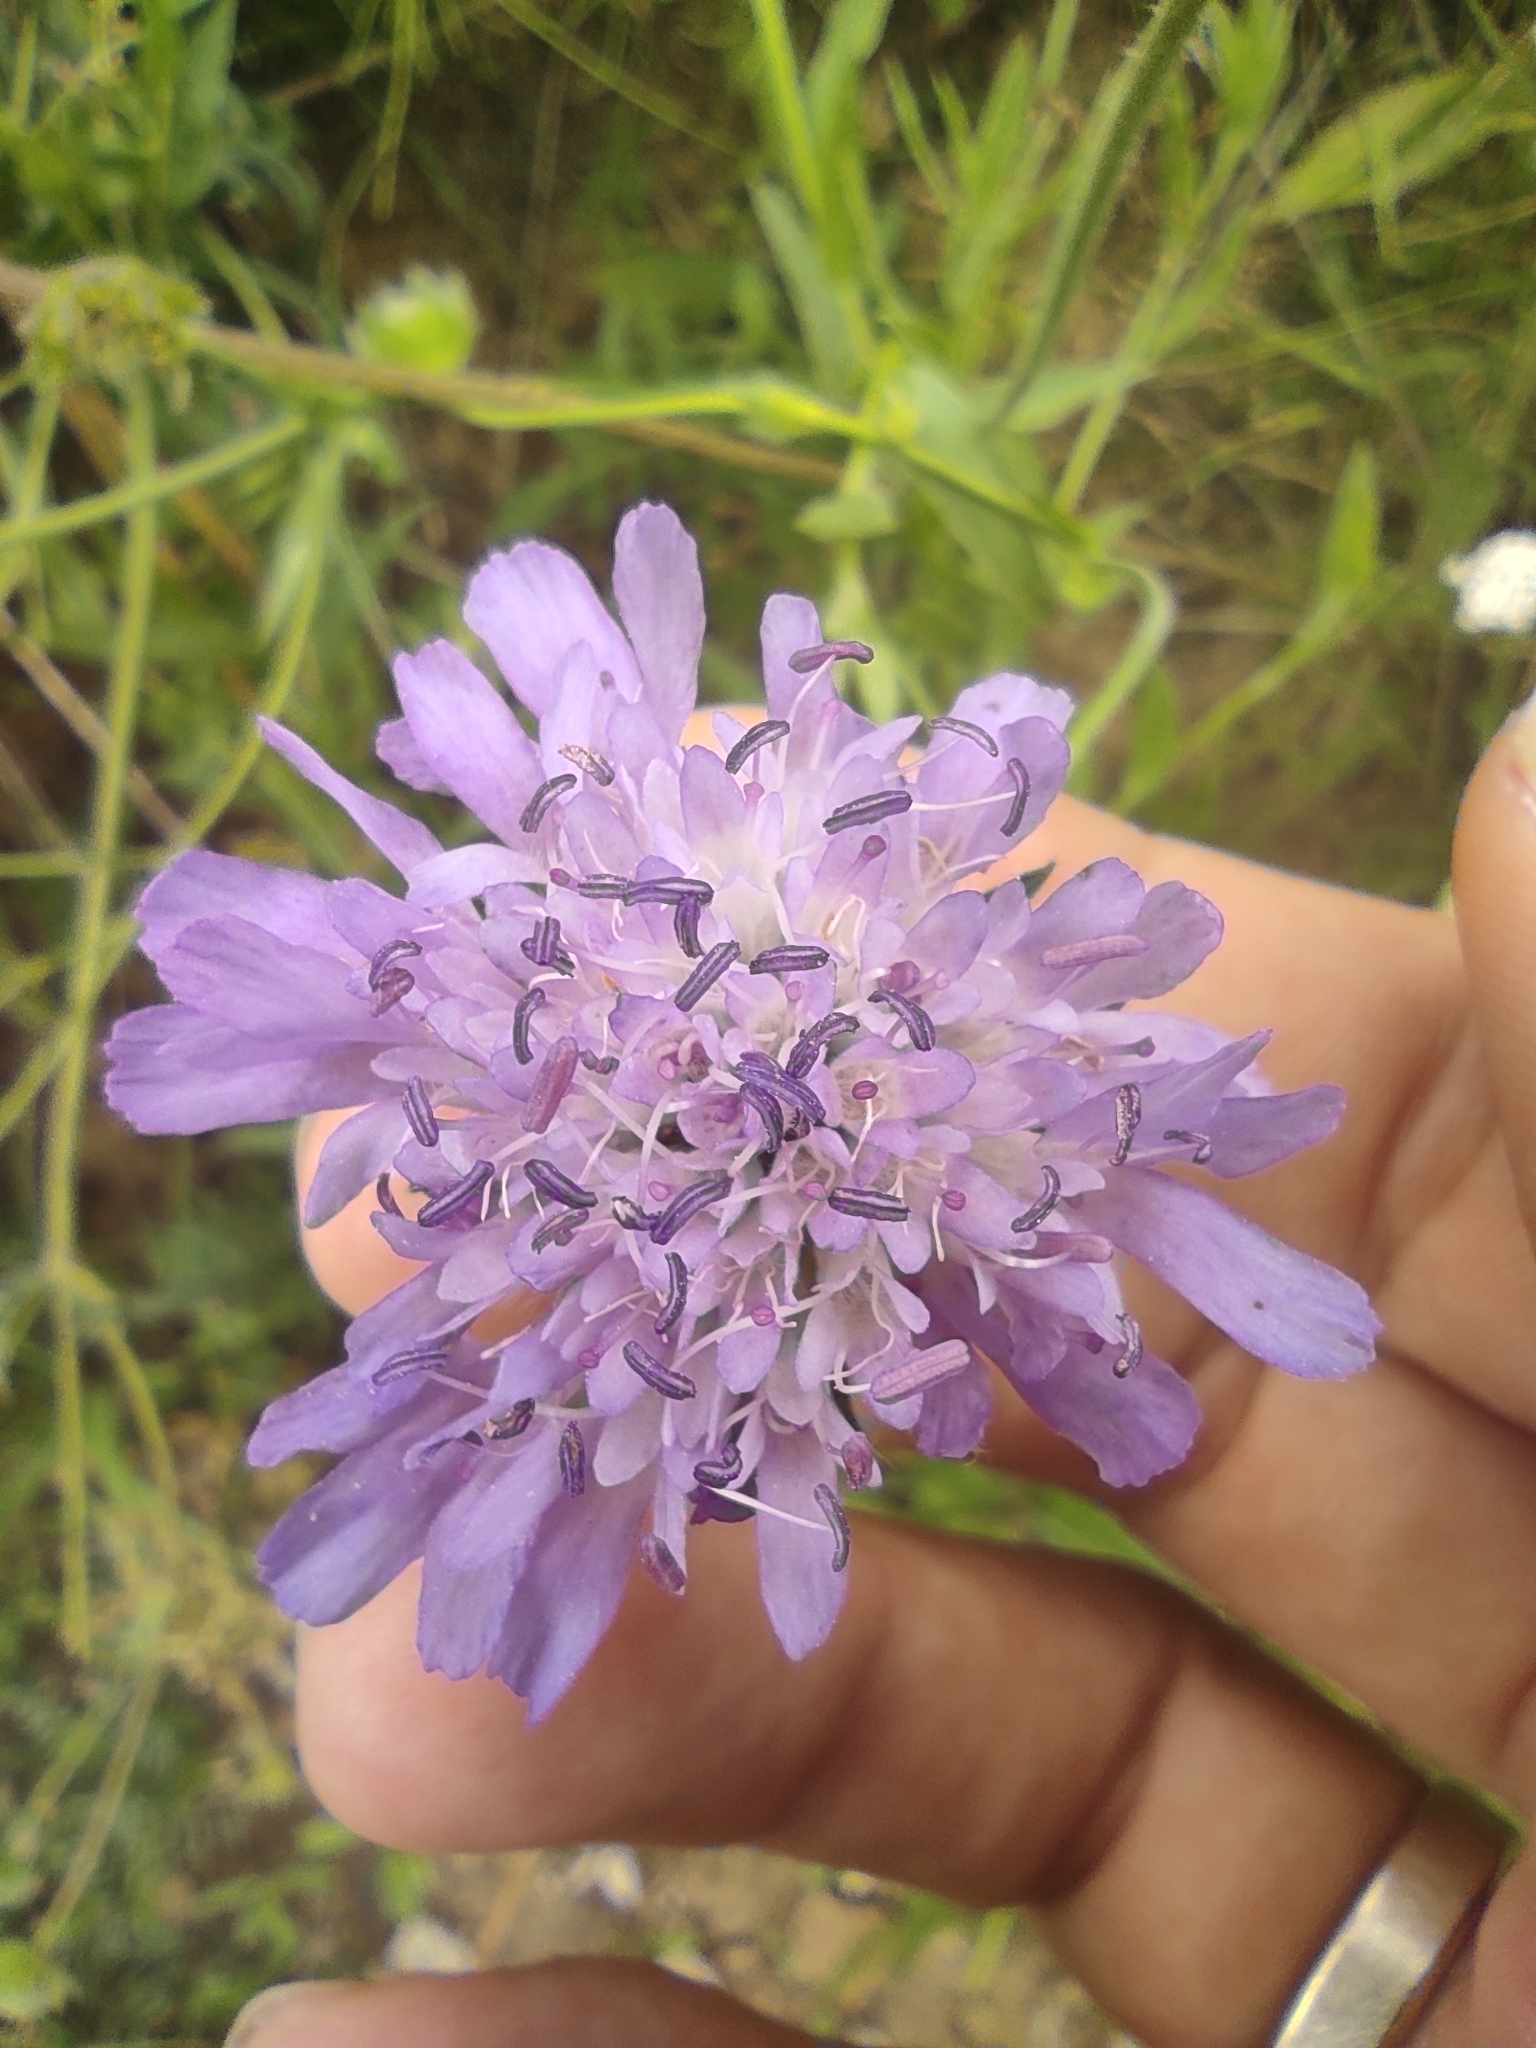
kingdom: Plantae
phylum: Tracheophyta
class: Magnoliopsida
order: Dipsacales
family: Caprifoliaceae
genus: Knautia
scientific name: Knautia arvensis
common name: Field scabiosa
